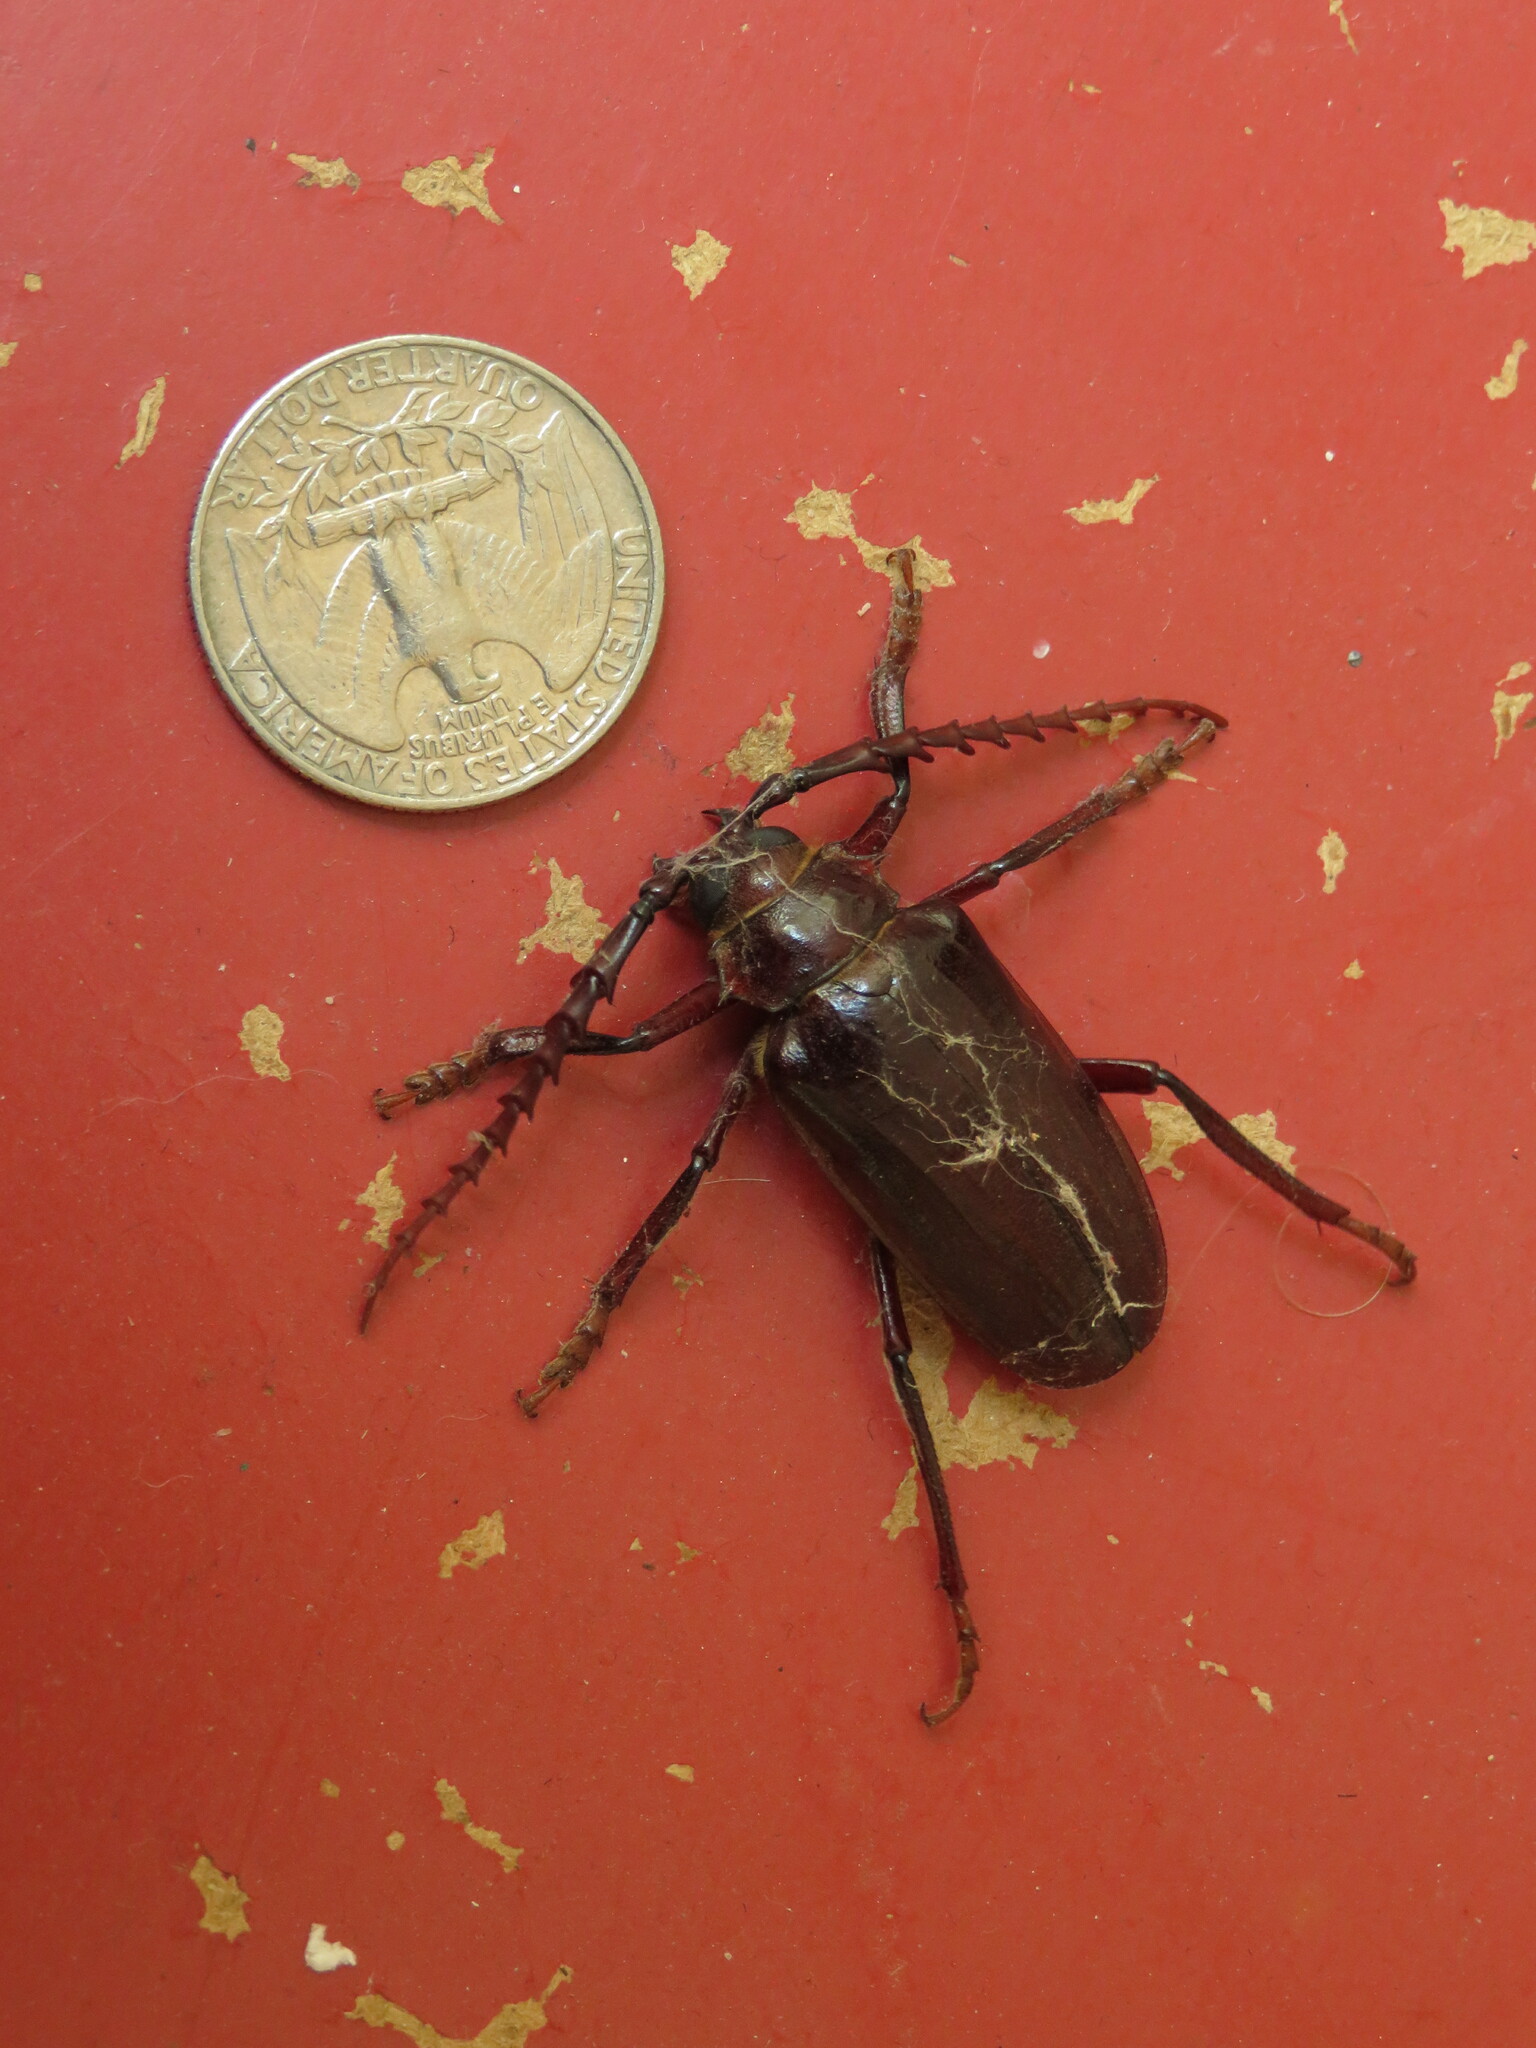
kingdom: Animalia
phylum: Arthropoda
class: Insecta
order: Coleoptera
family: Cerambycidae
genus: Prionus
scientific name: Prionus californicus
